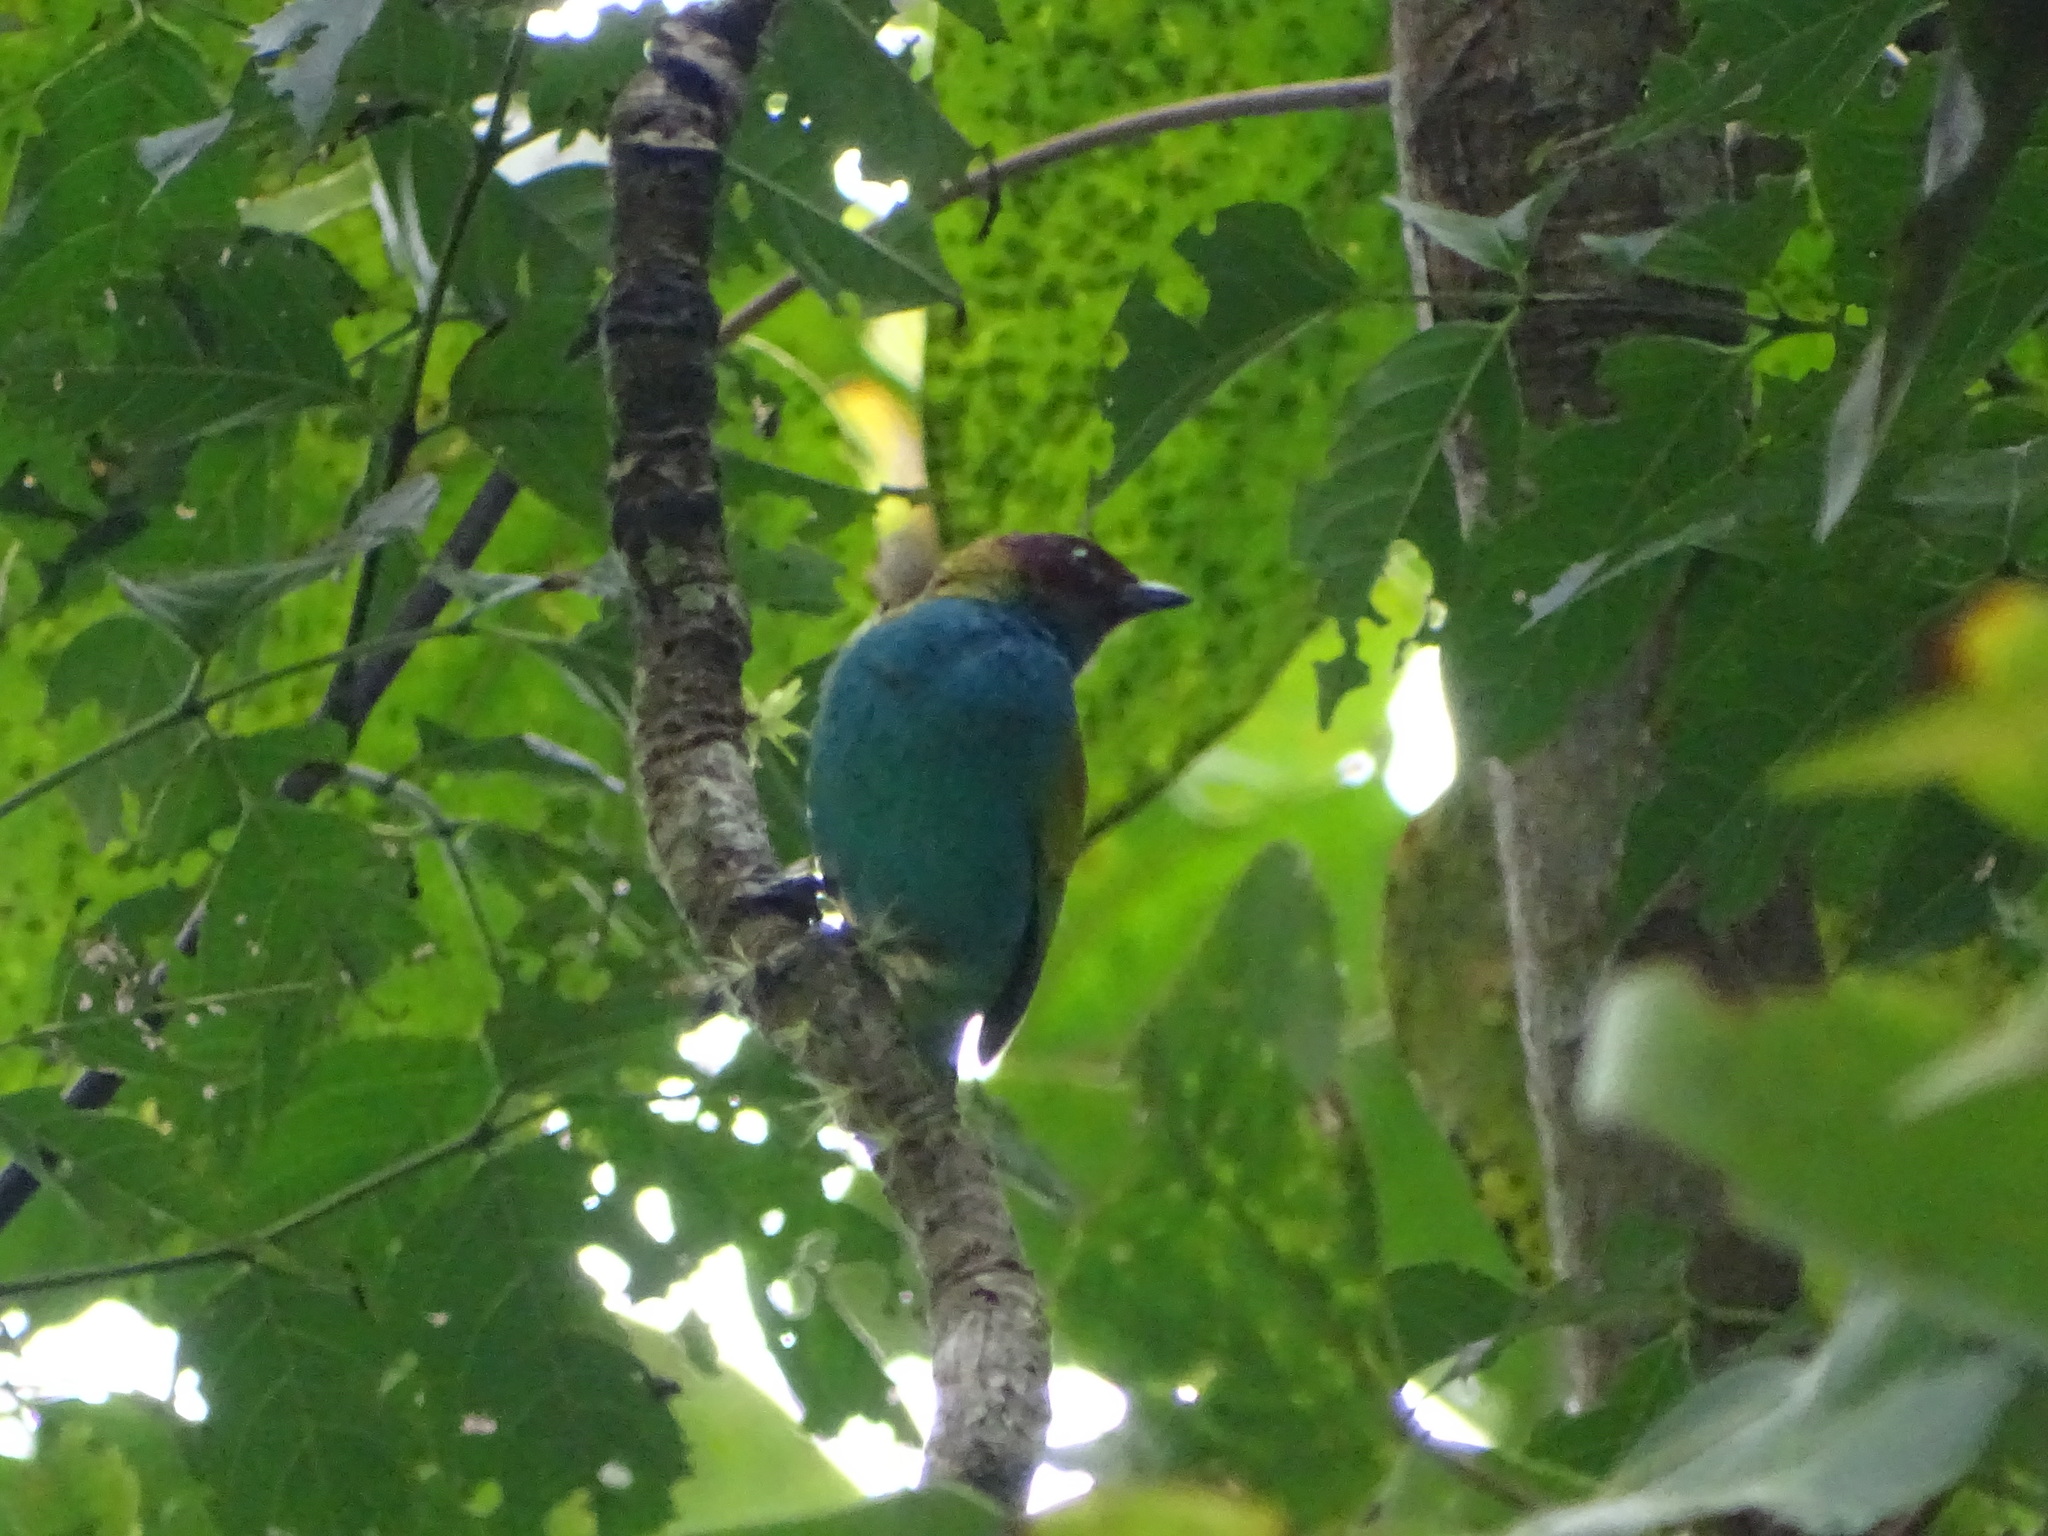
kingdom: Animalia
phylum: Chordata
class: Aves
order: Passeriformes
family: Thraupidae
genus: Tangara
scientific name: Tangara gyrola
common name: Bay-headed tanager
